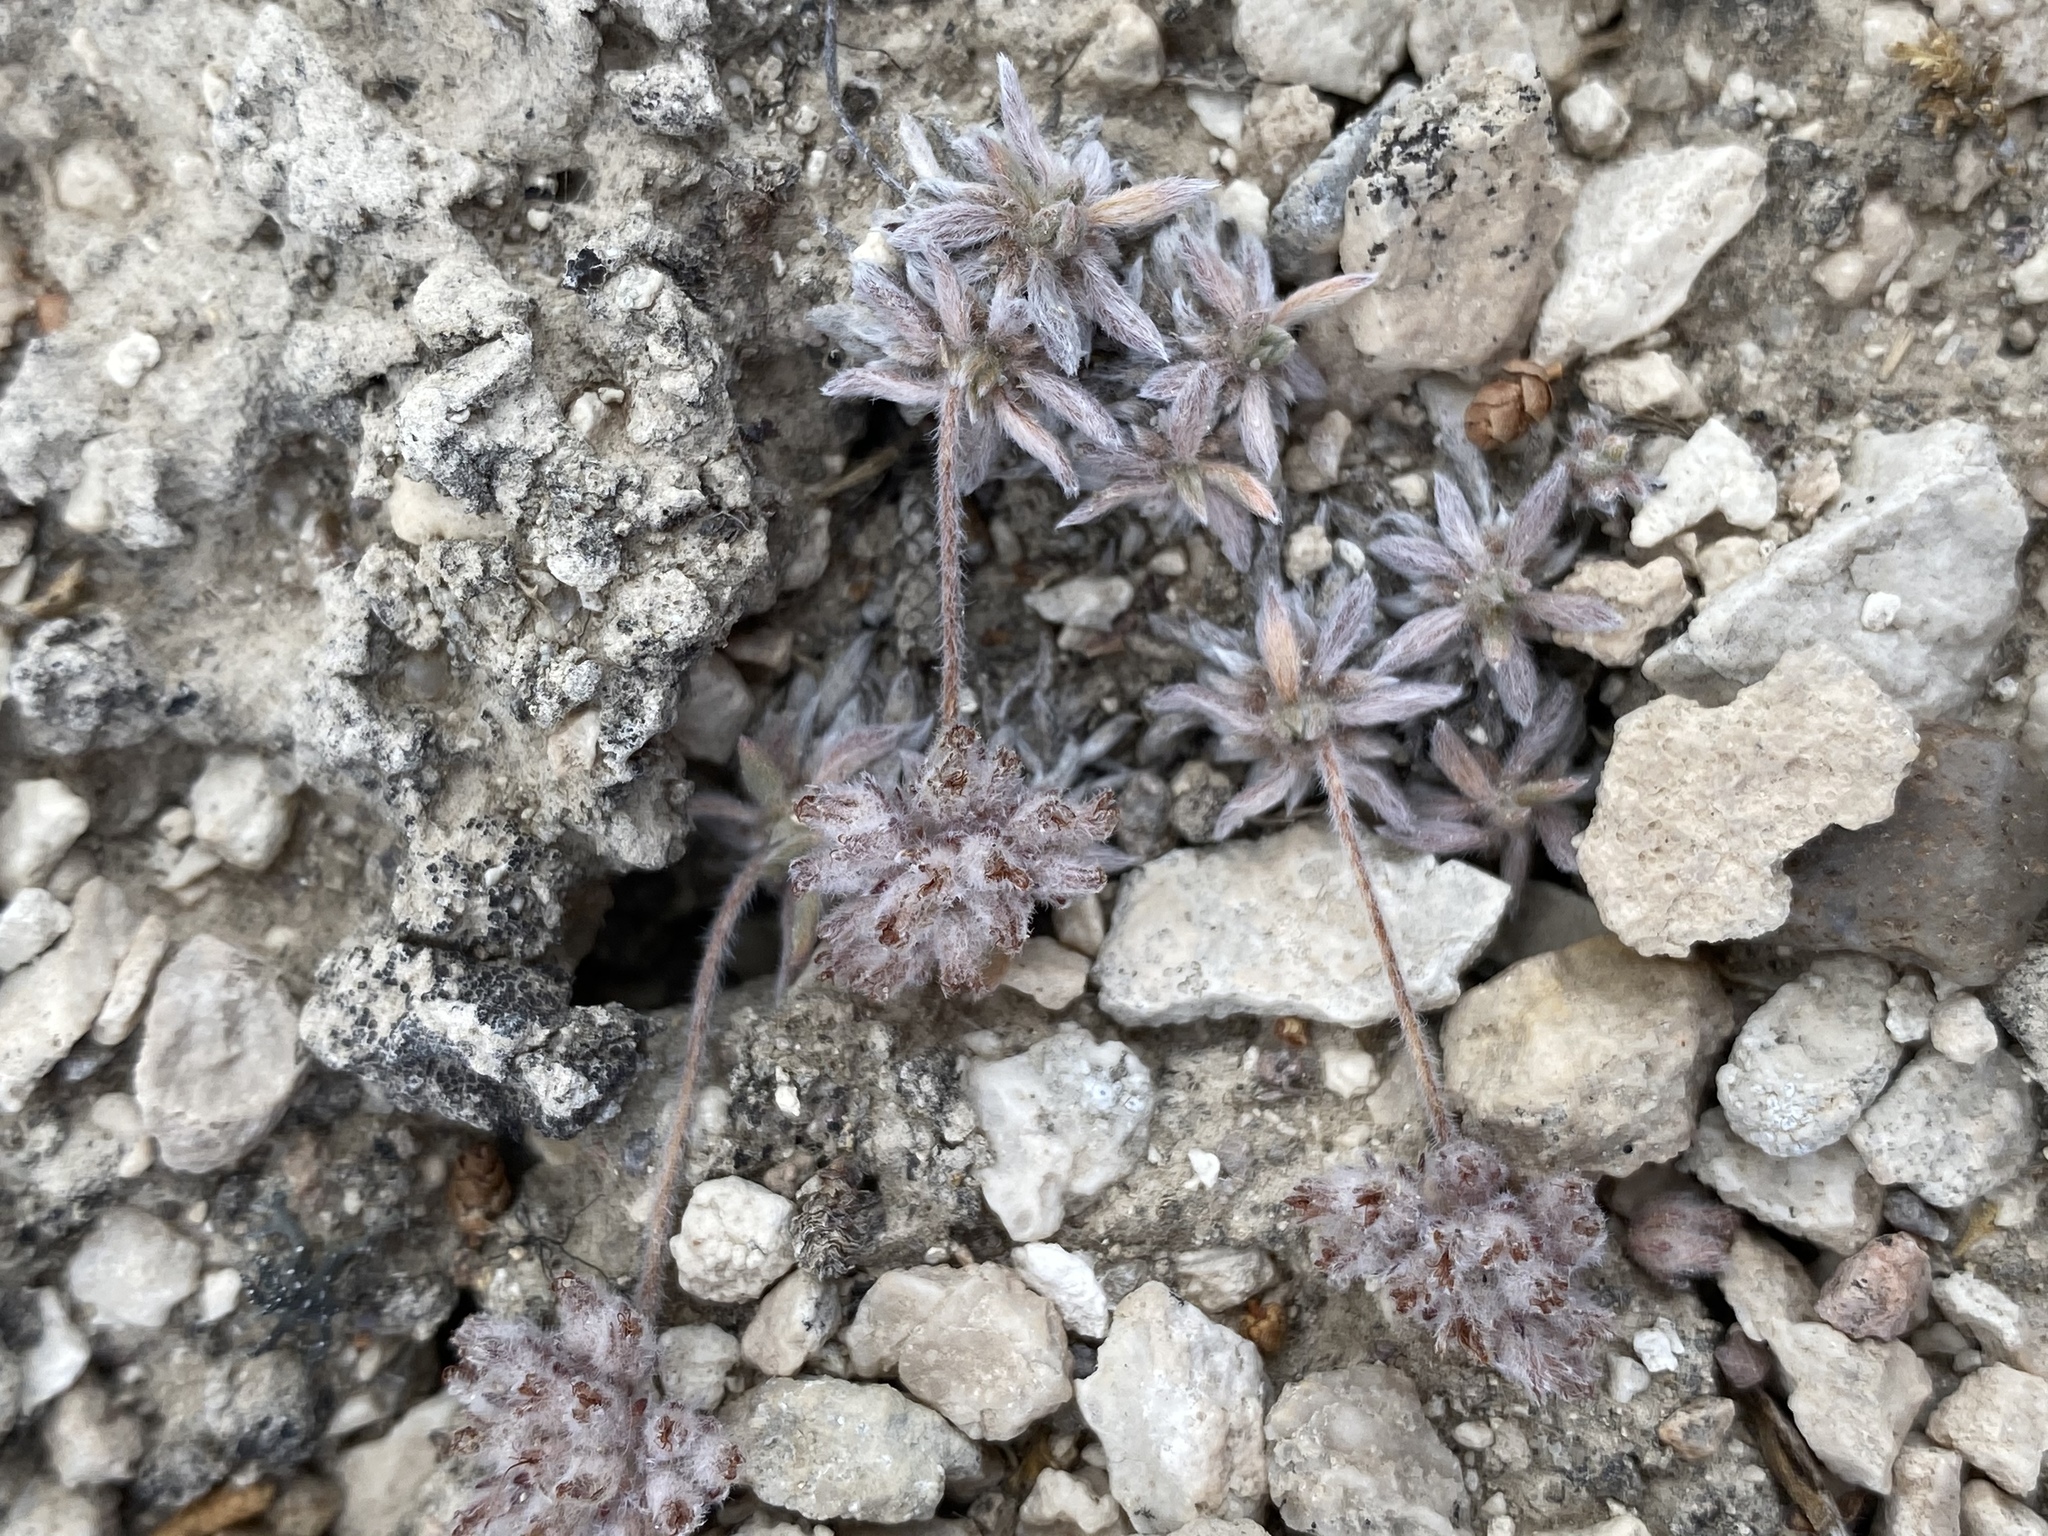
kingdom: Plantae
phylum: Tracheophyta
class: Magnoliopsida
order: Caryophyllales
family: Polygonaceae
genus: Eriogonum
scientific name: Eriogonum villiflorum
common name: Gray's wild buckwheat
